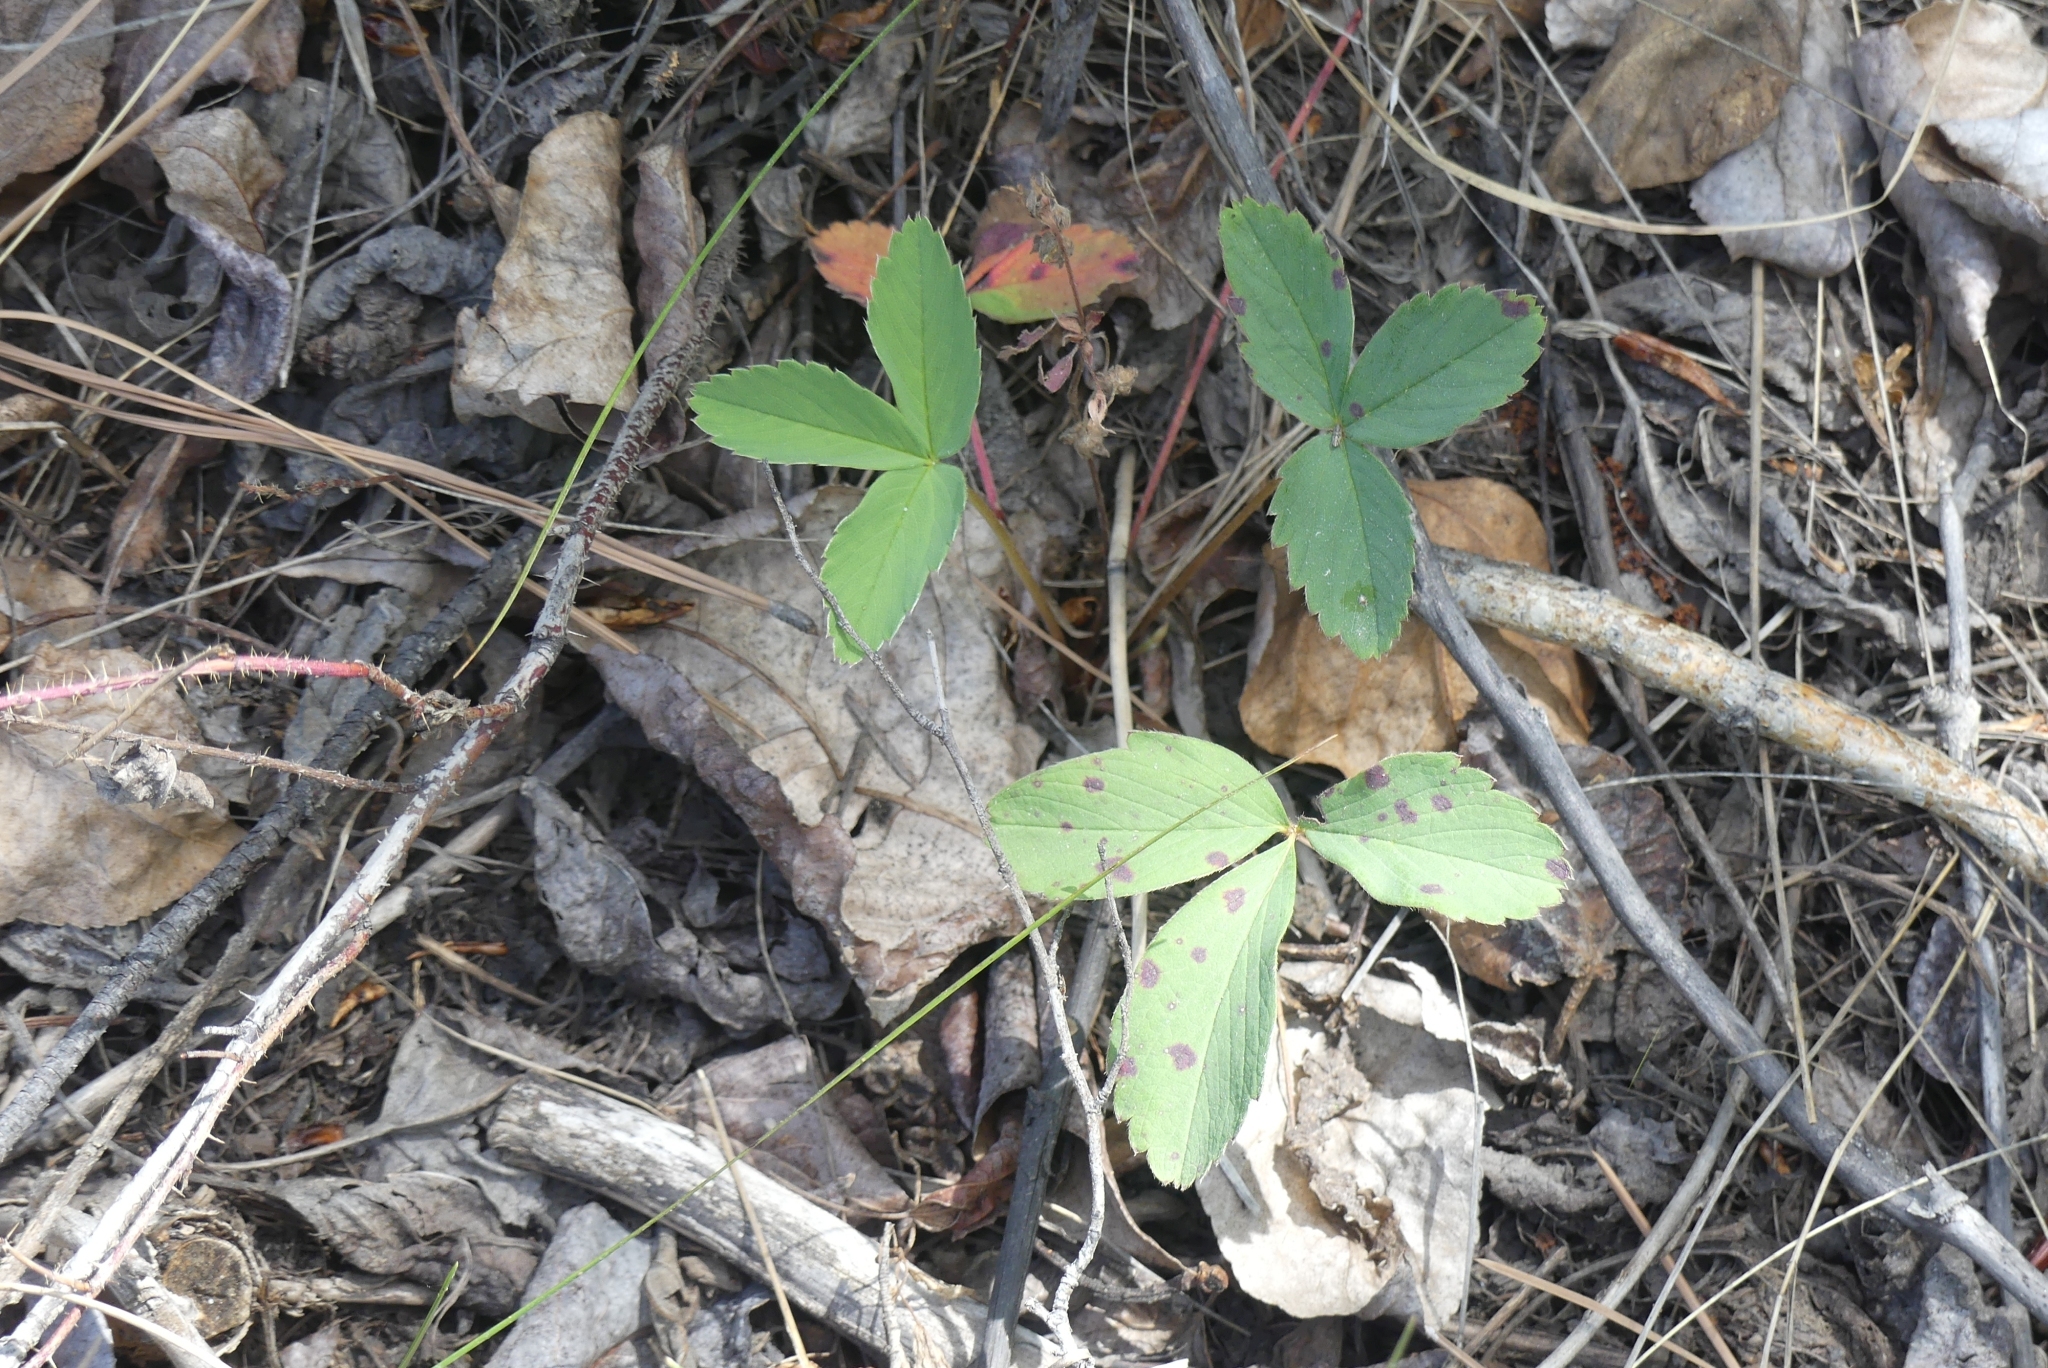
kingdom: Plantae
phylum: Tracheophyta
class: Magnoliopsida
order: Rosales
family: Rosaceae
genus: Fragaria
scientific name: Fragaria virginiana
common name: Thickleaved wild strawberry
